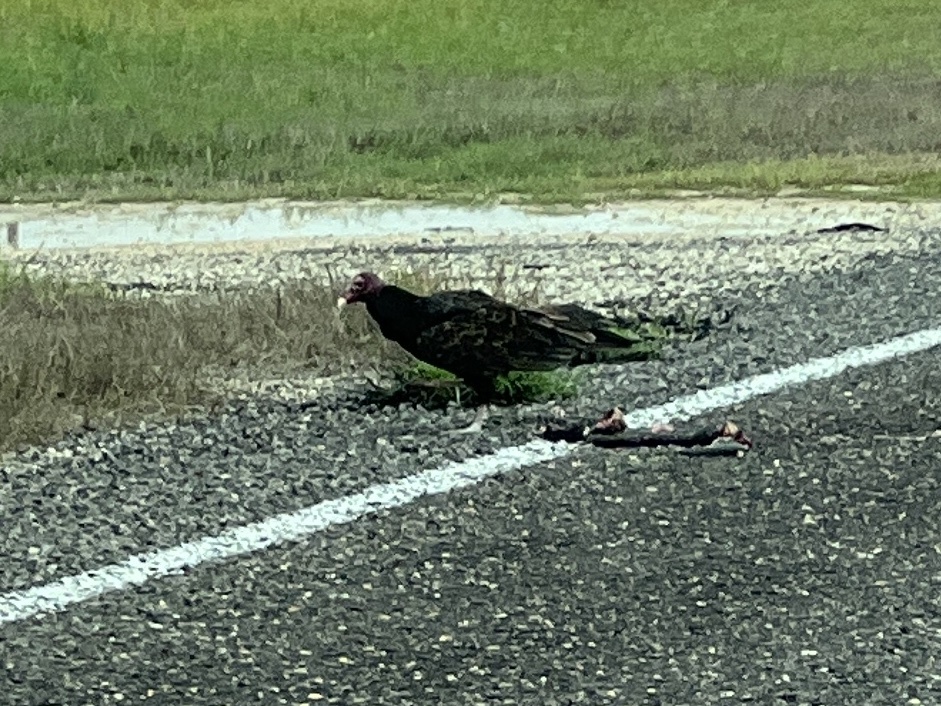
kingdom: Animalia
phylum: Chordata
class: Aves
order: Accipitriformes
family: Cathartidae
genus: Cathartes
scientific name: Cathartes aura
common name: Turkey vulture
